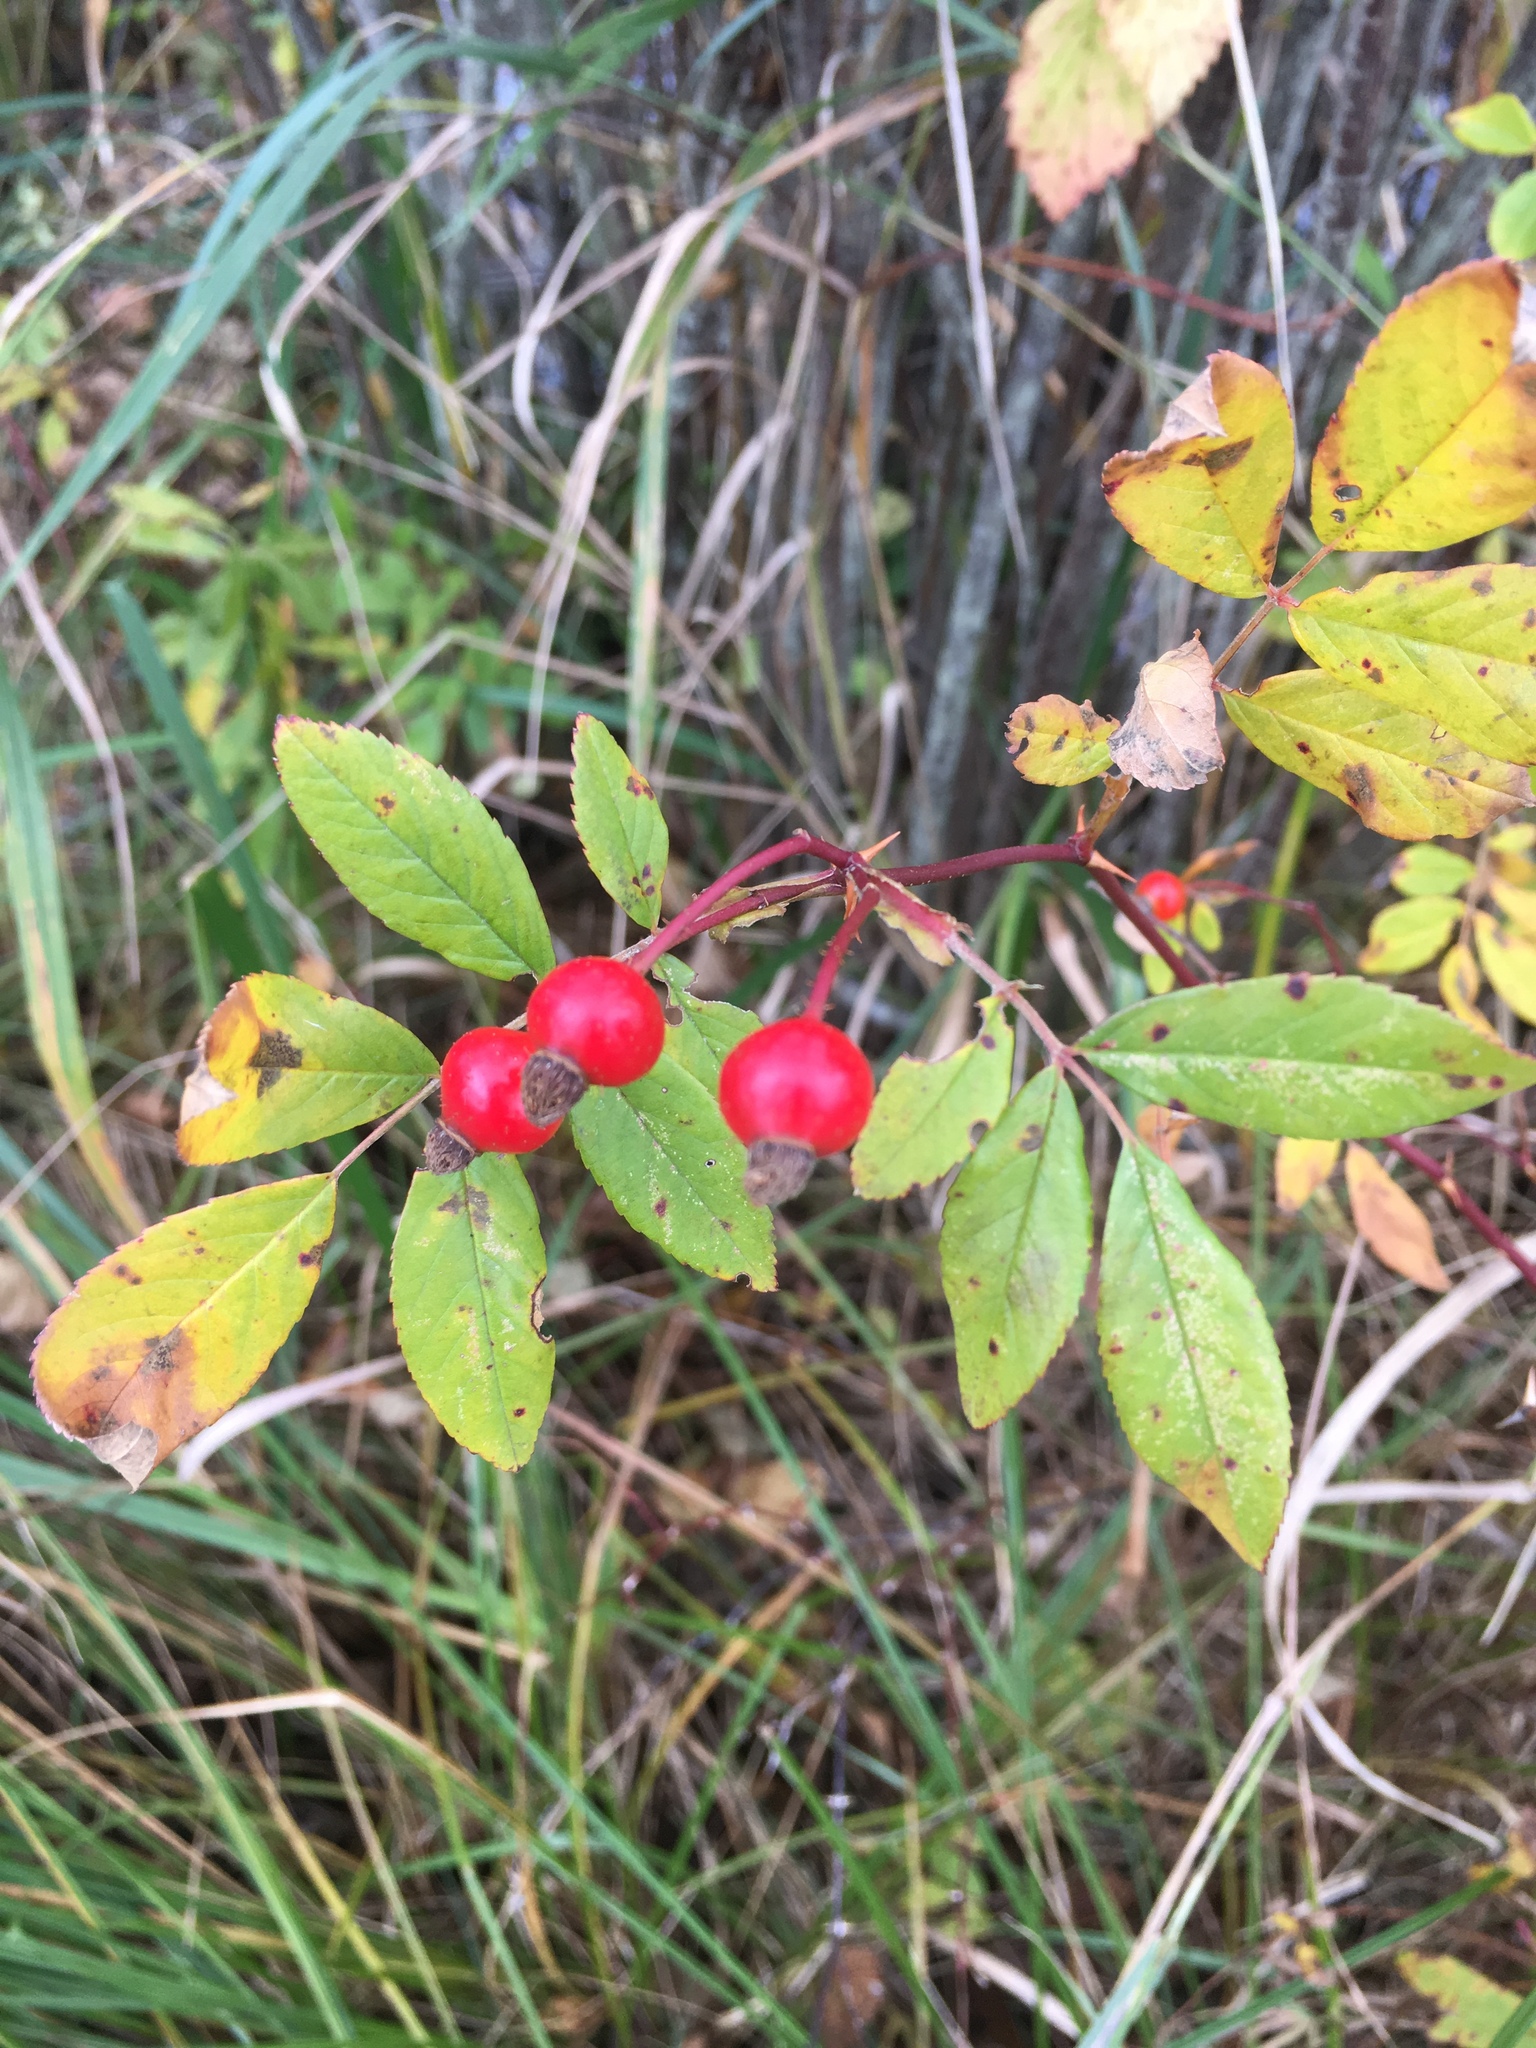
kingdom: Plantae
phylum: Tracheophyta
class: Magnoliopsida
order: Rosales
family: Rosaceae
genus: Rosa
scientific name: Rosa palustris
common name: Swamp rose
